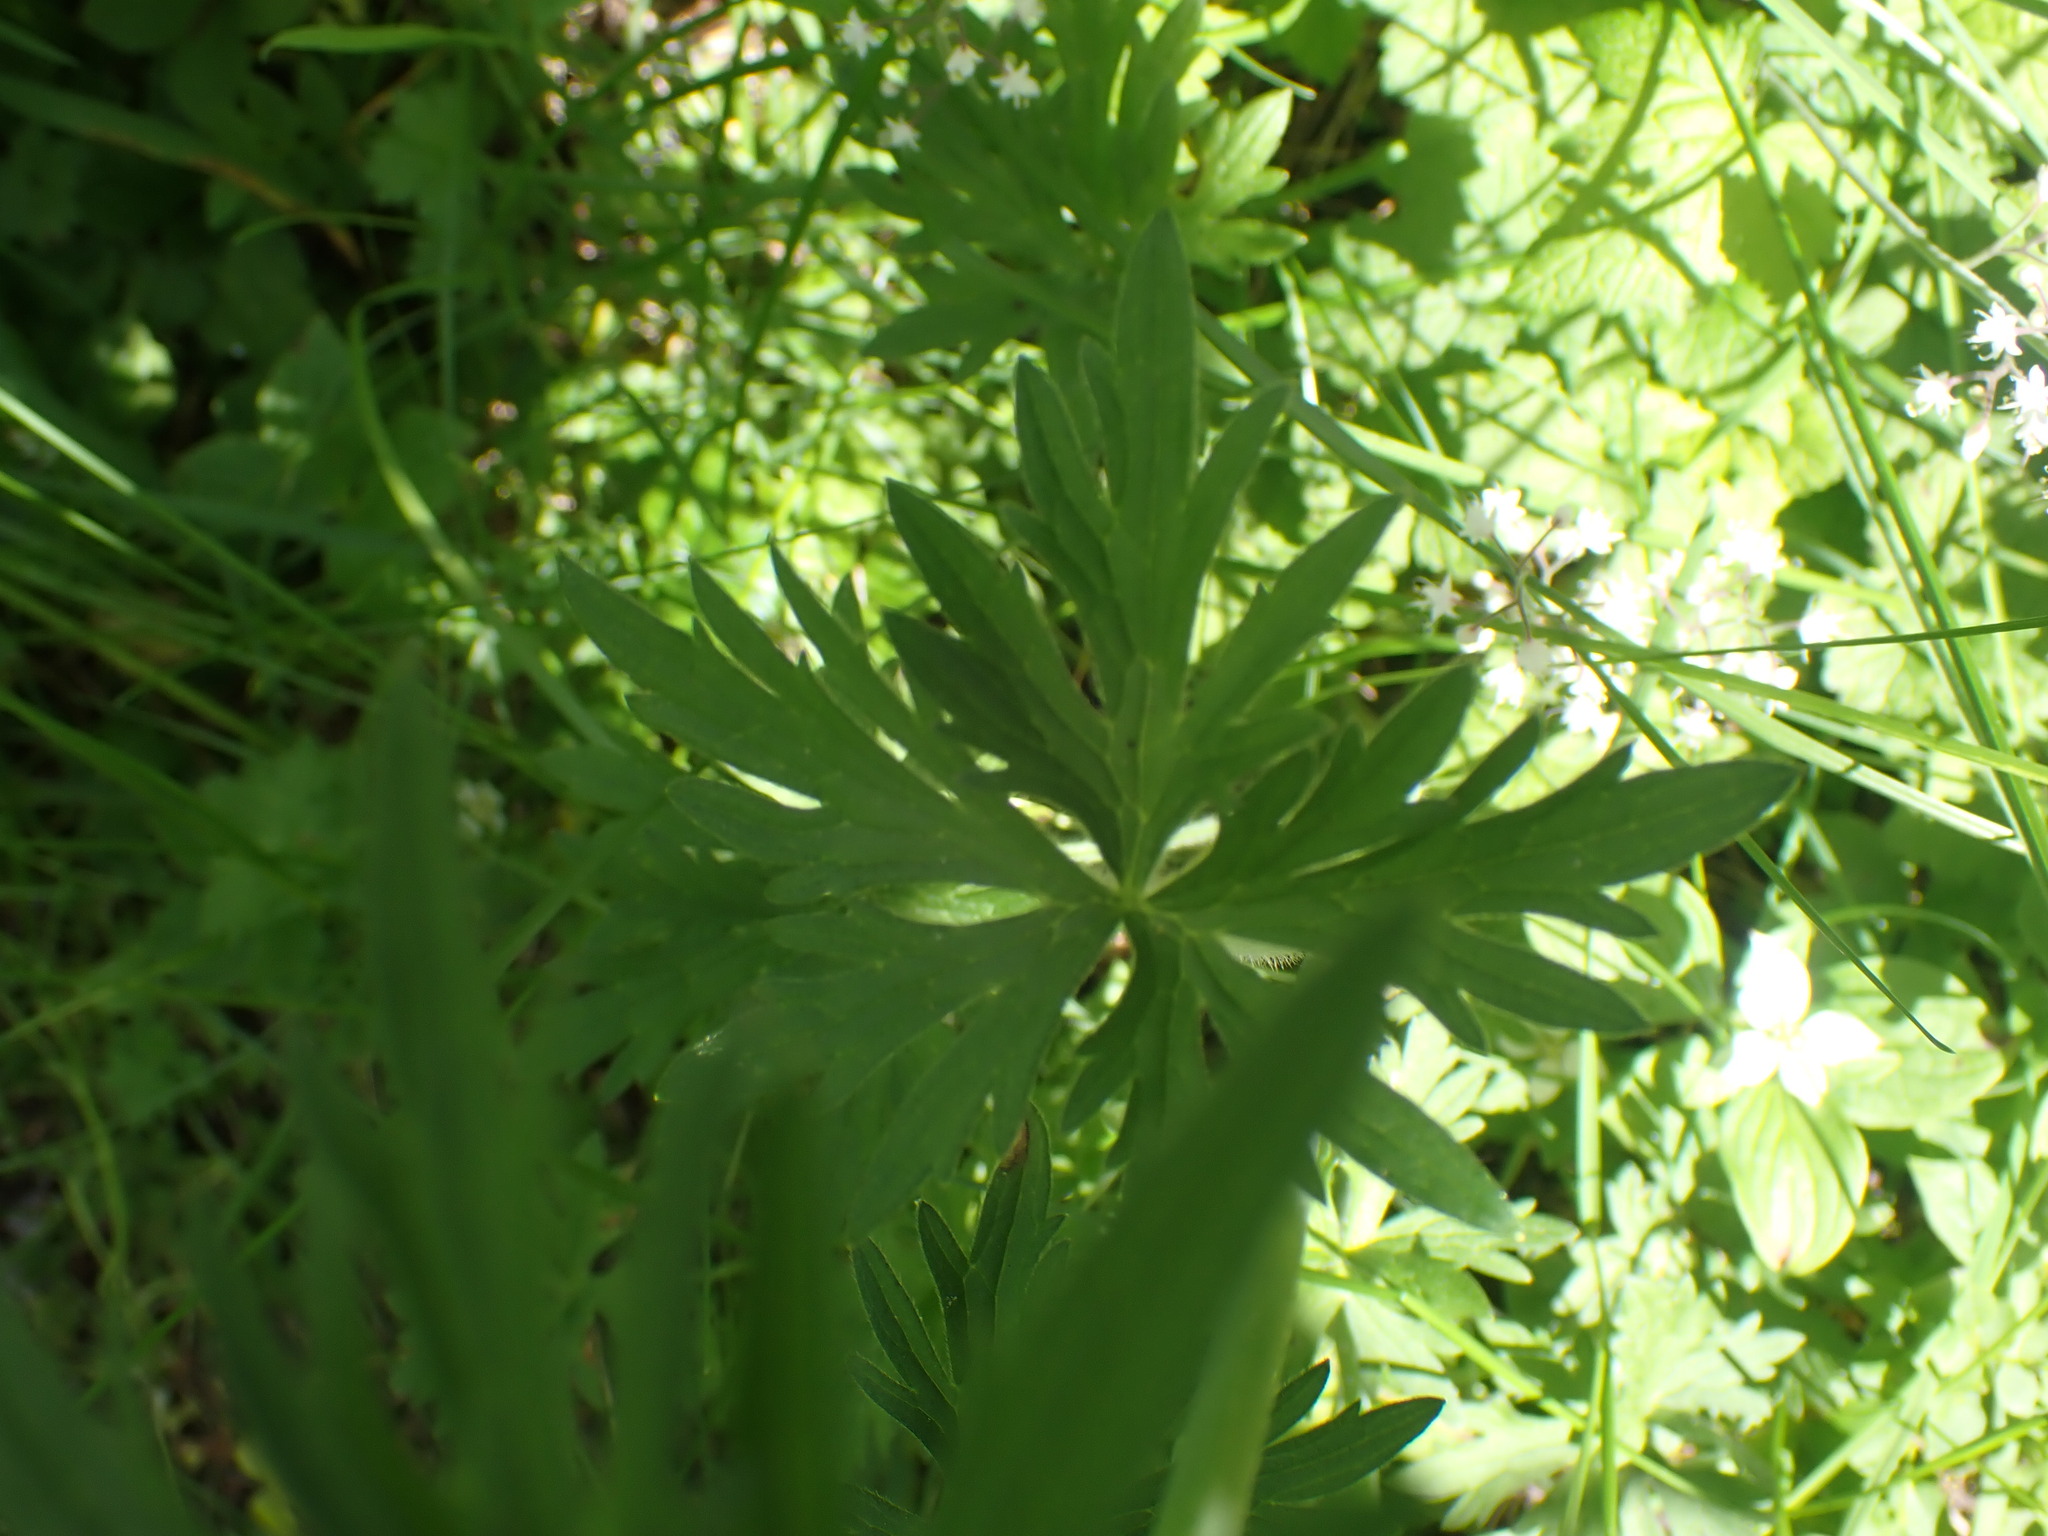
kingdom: Plantae
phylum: Tracheophyta
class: Magnoliopsida
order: Ranunculales
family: Ranunculaceae
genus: Ranunculus
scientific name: Ranunculus acris
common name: Meadow buttercup
